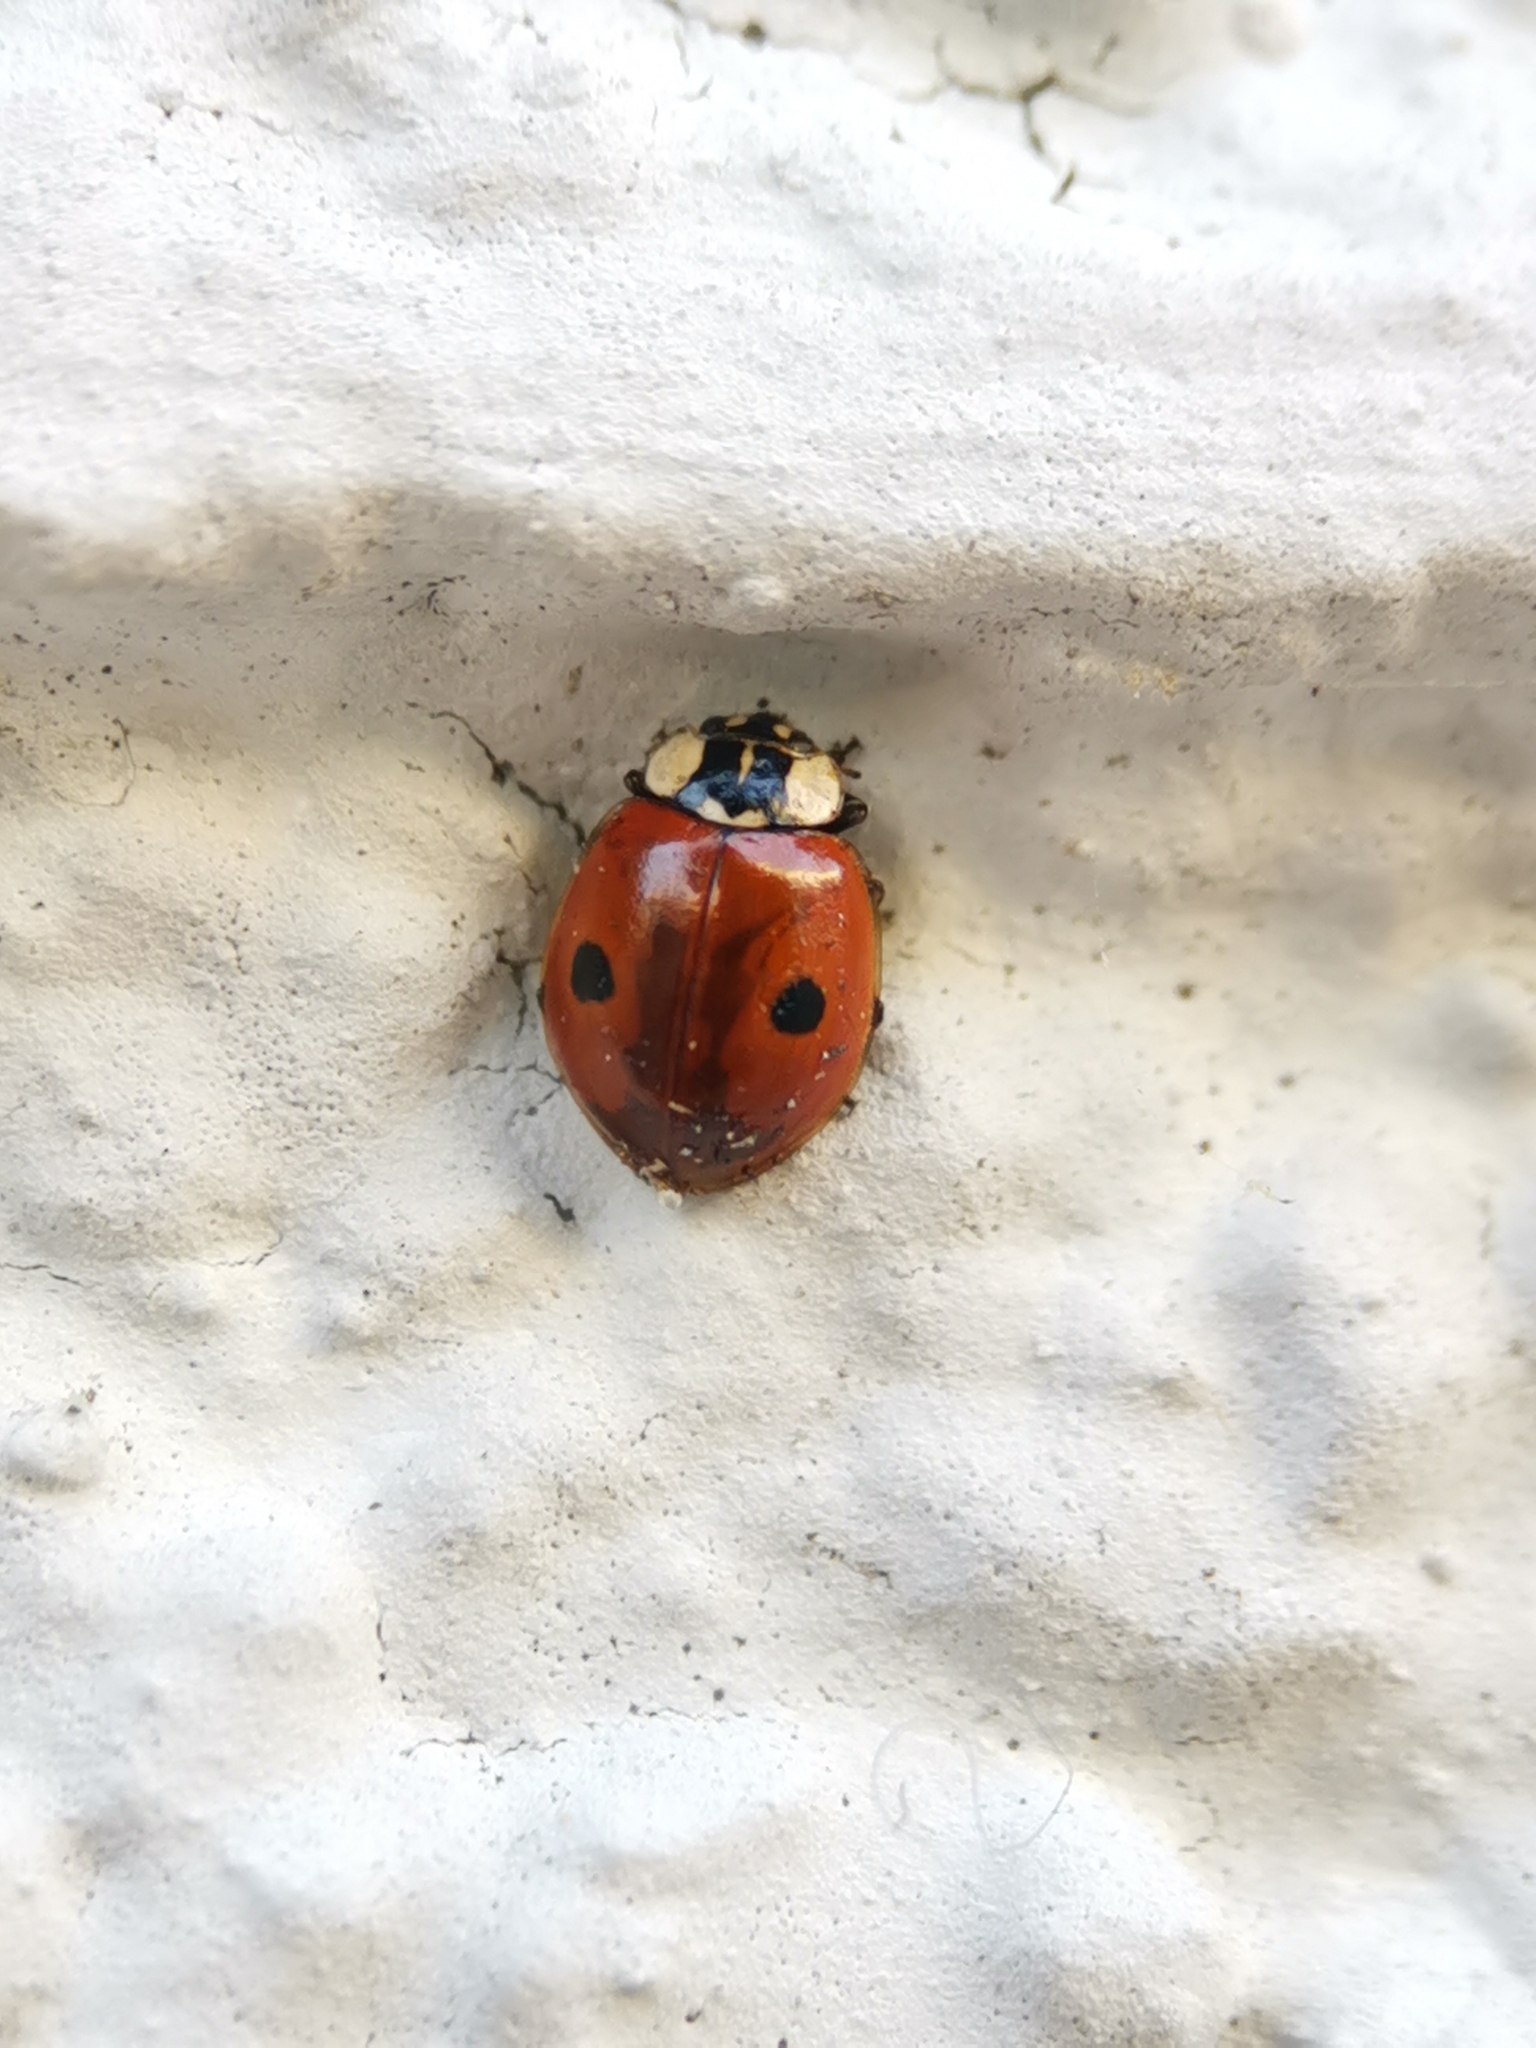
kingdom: Animalia
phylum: Arthropoda
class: Insecta
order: Coleoptera
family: Coccinellidae
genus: Adalia
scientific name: Adalia bipunctata
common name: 2-spot ladybird
